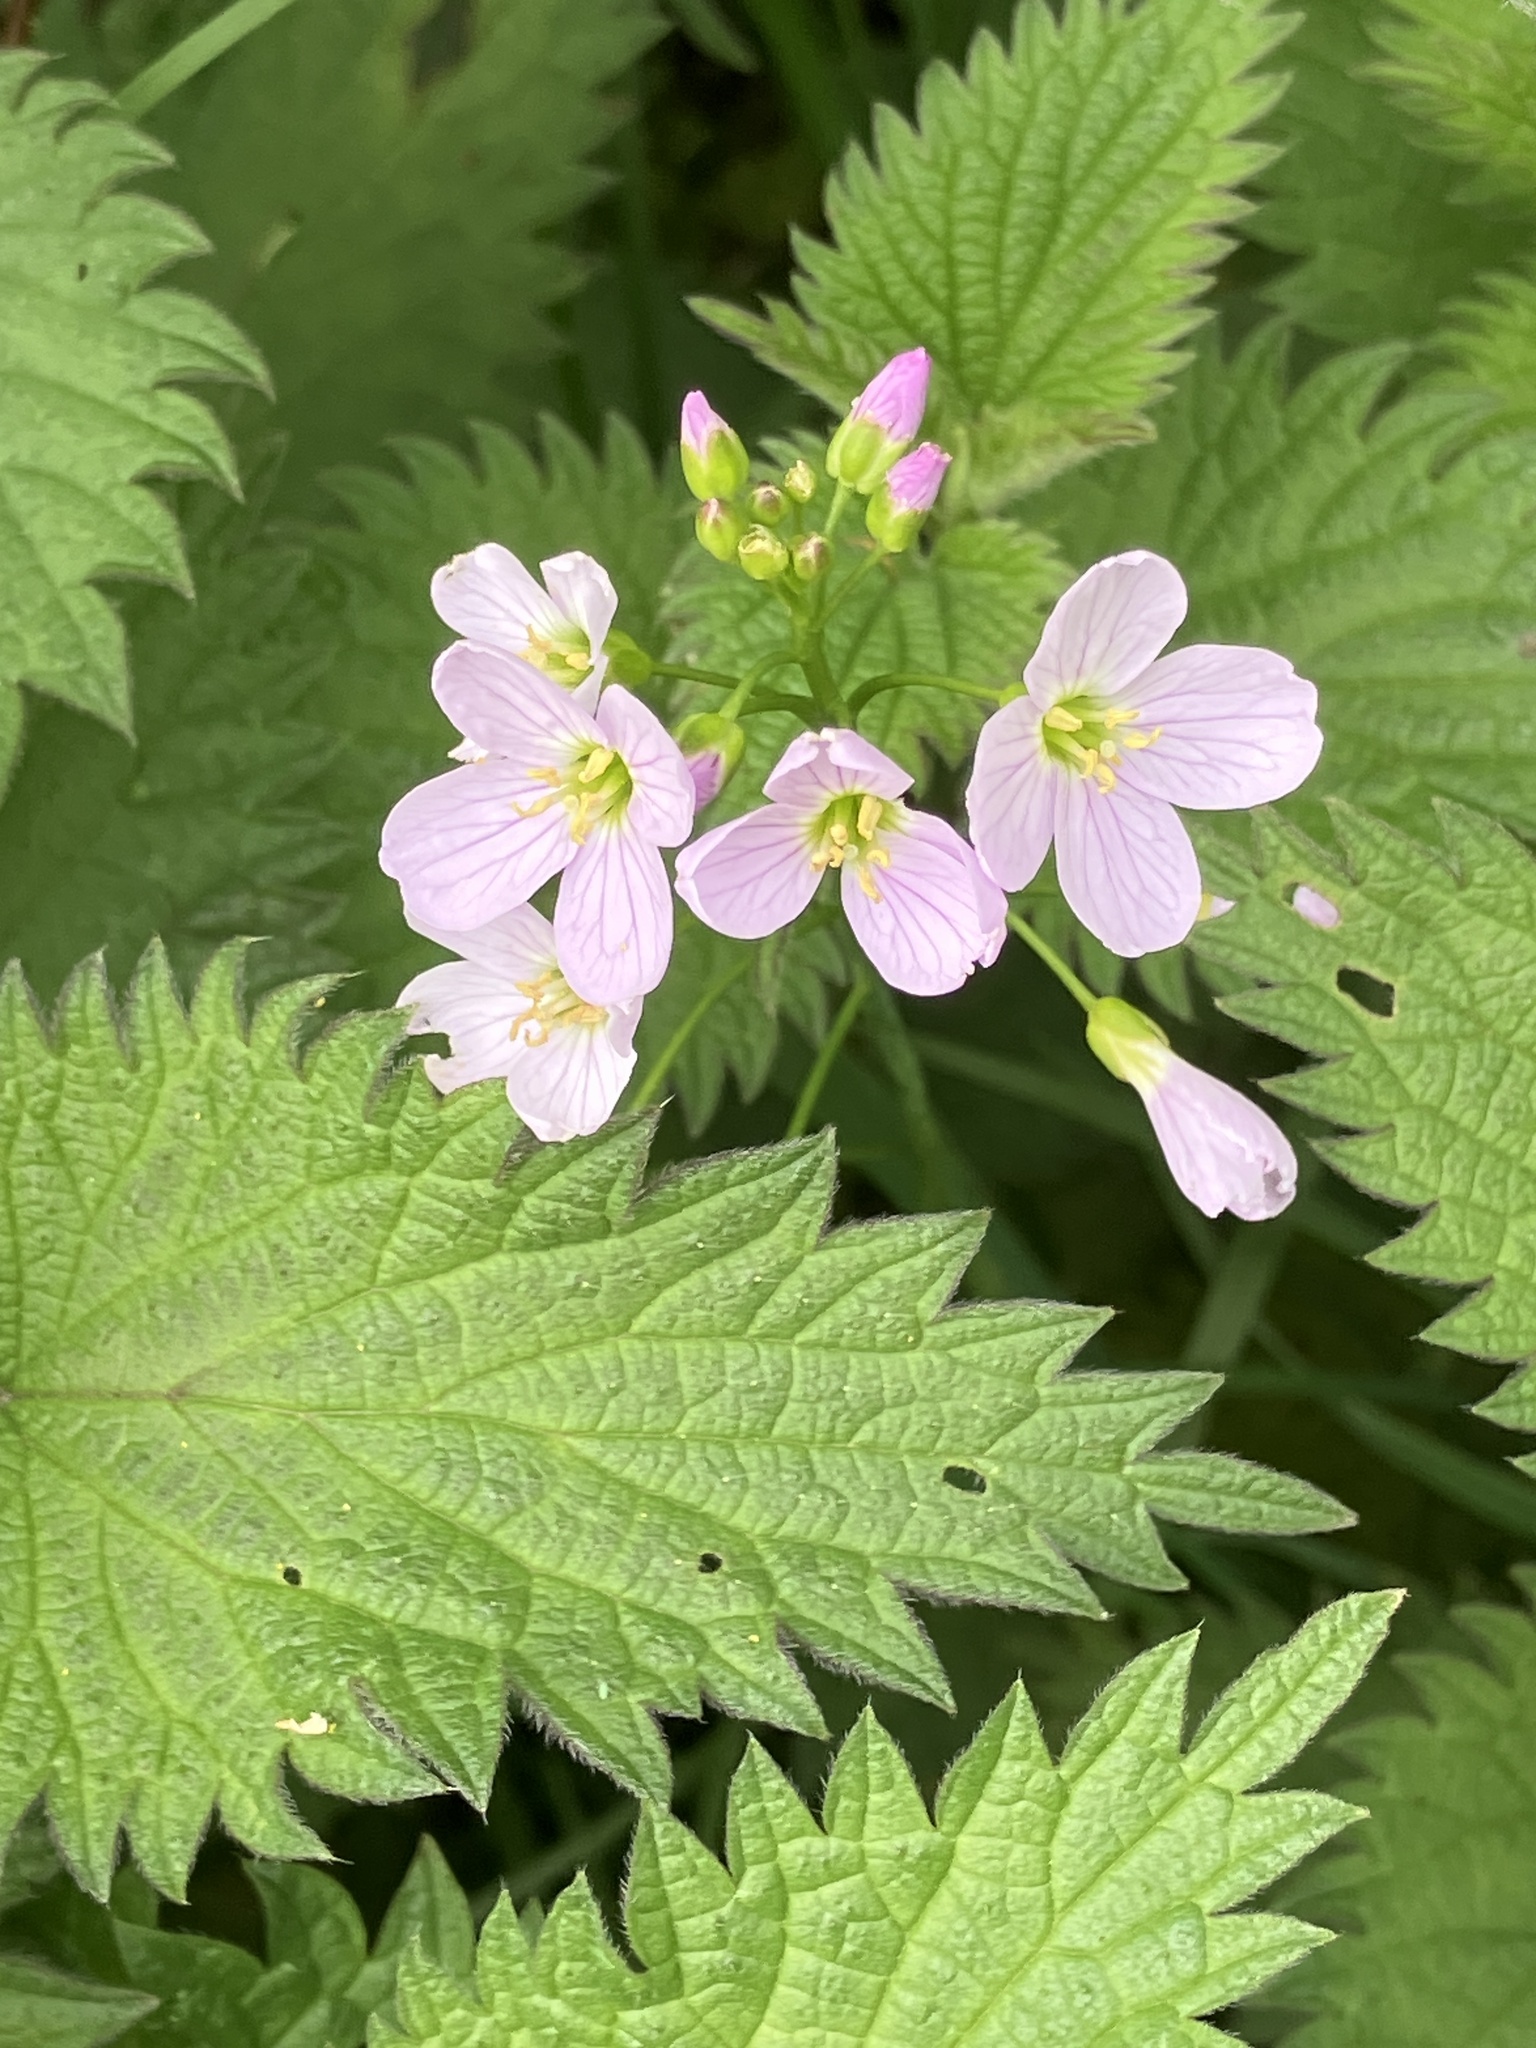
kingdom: Plantae
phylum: Tracheophyta
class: Magnoliopsida
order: Brassicales
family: Brassicaceae
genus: Cardamine
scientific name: Cardamine pratensis
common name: Cuckoo flower
